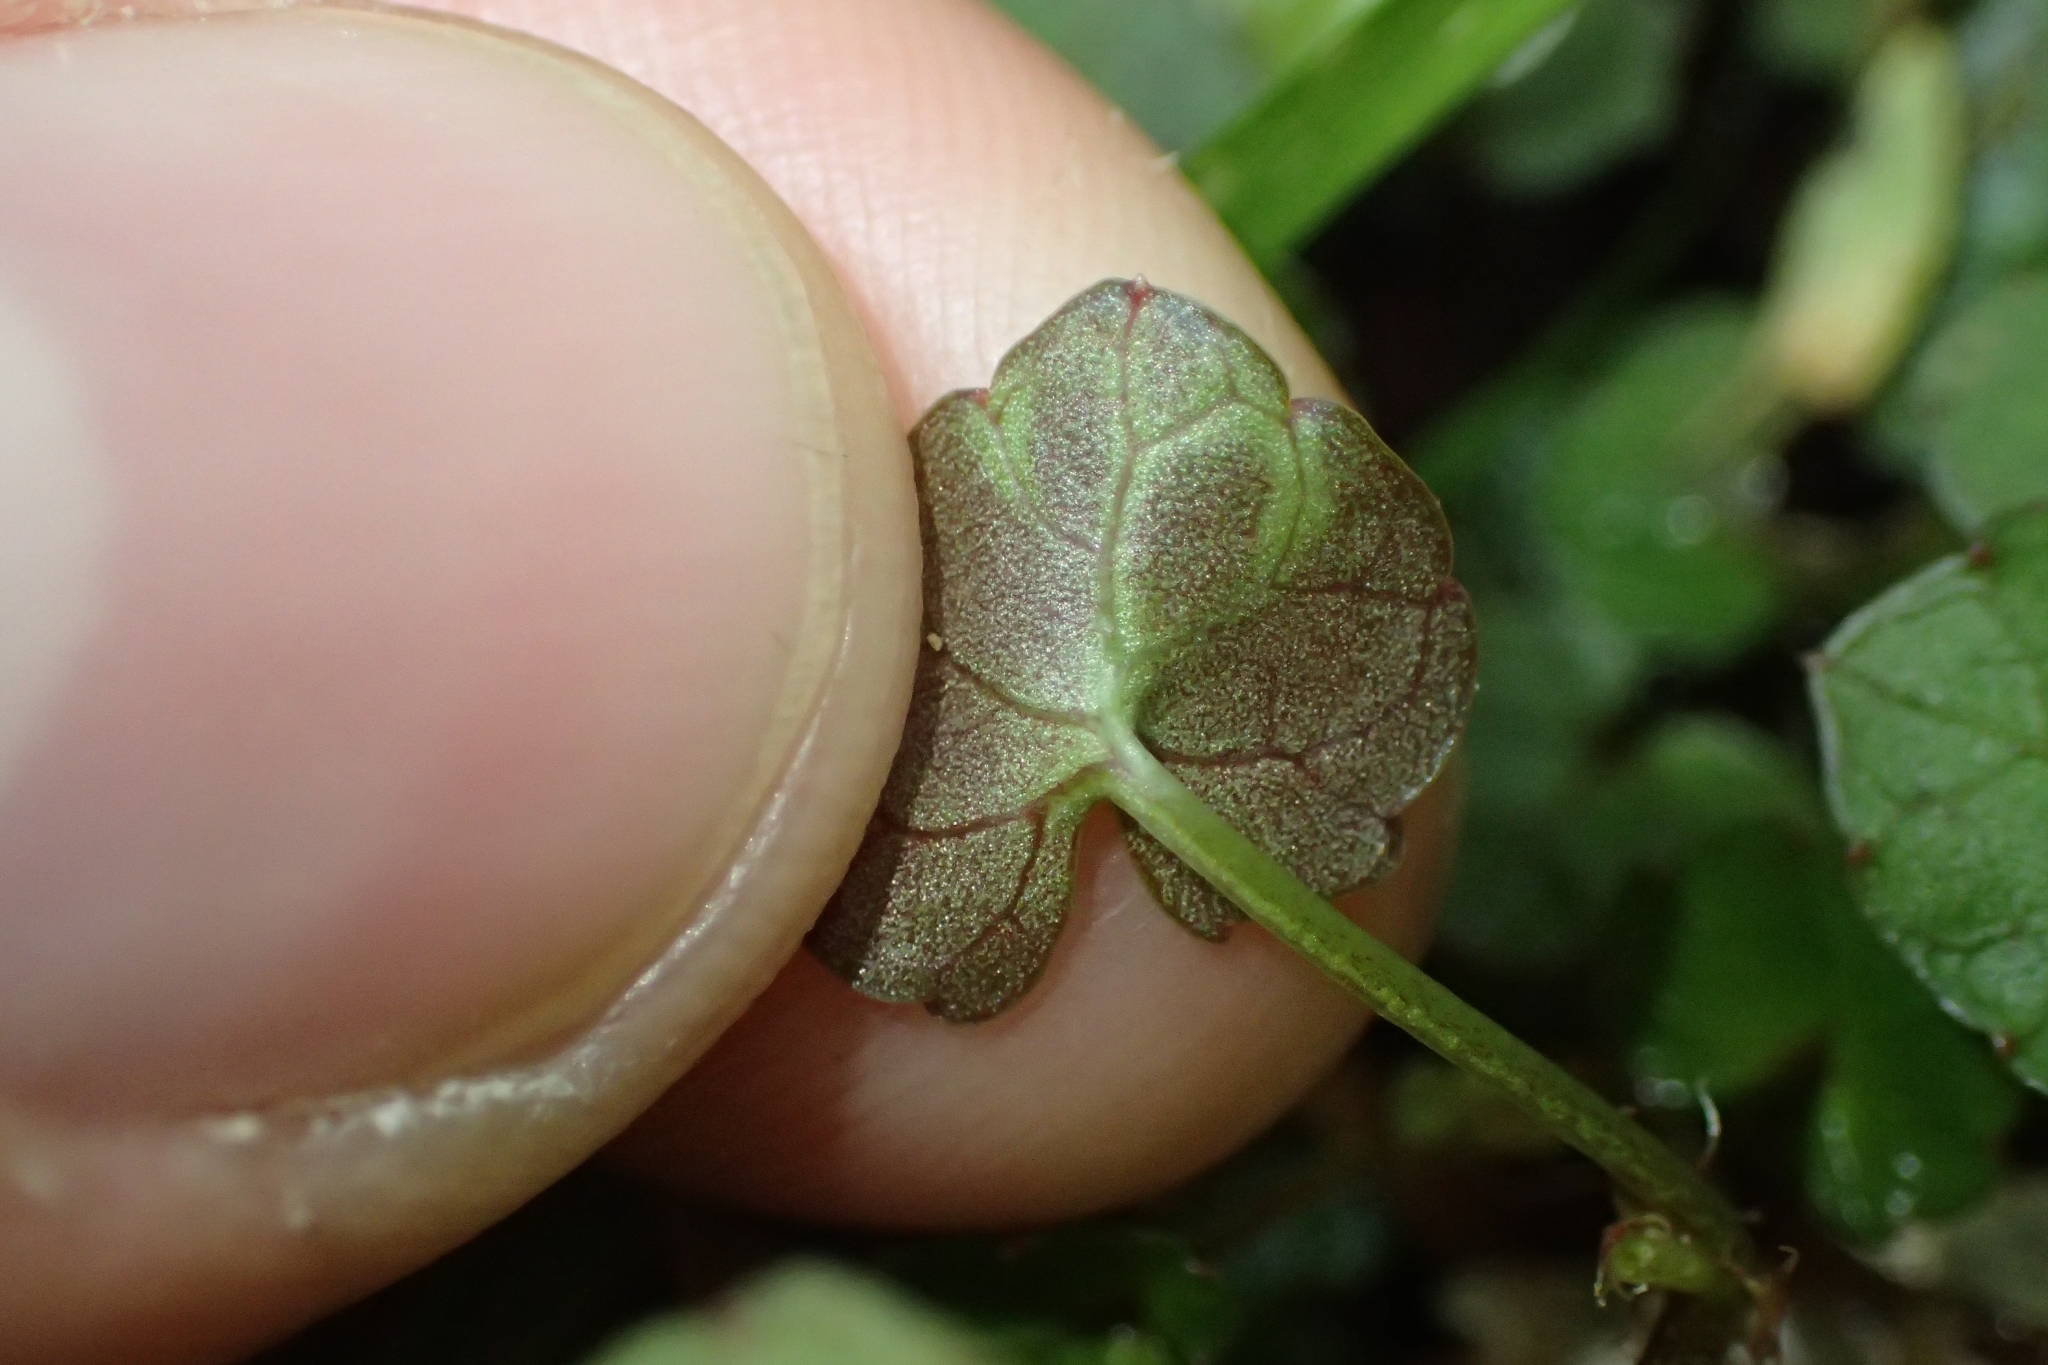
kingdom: Plantae
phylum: Tracheophyta
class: Magnoliopsida
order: Malpighiales
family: Violaceae
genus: Viola
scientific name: Viola filicaulis
